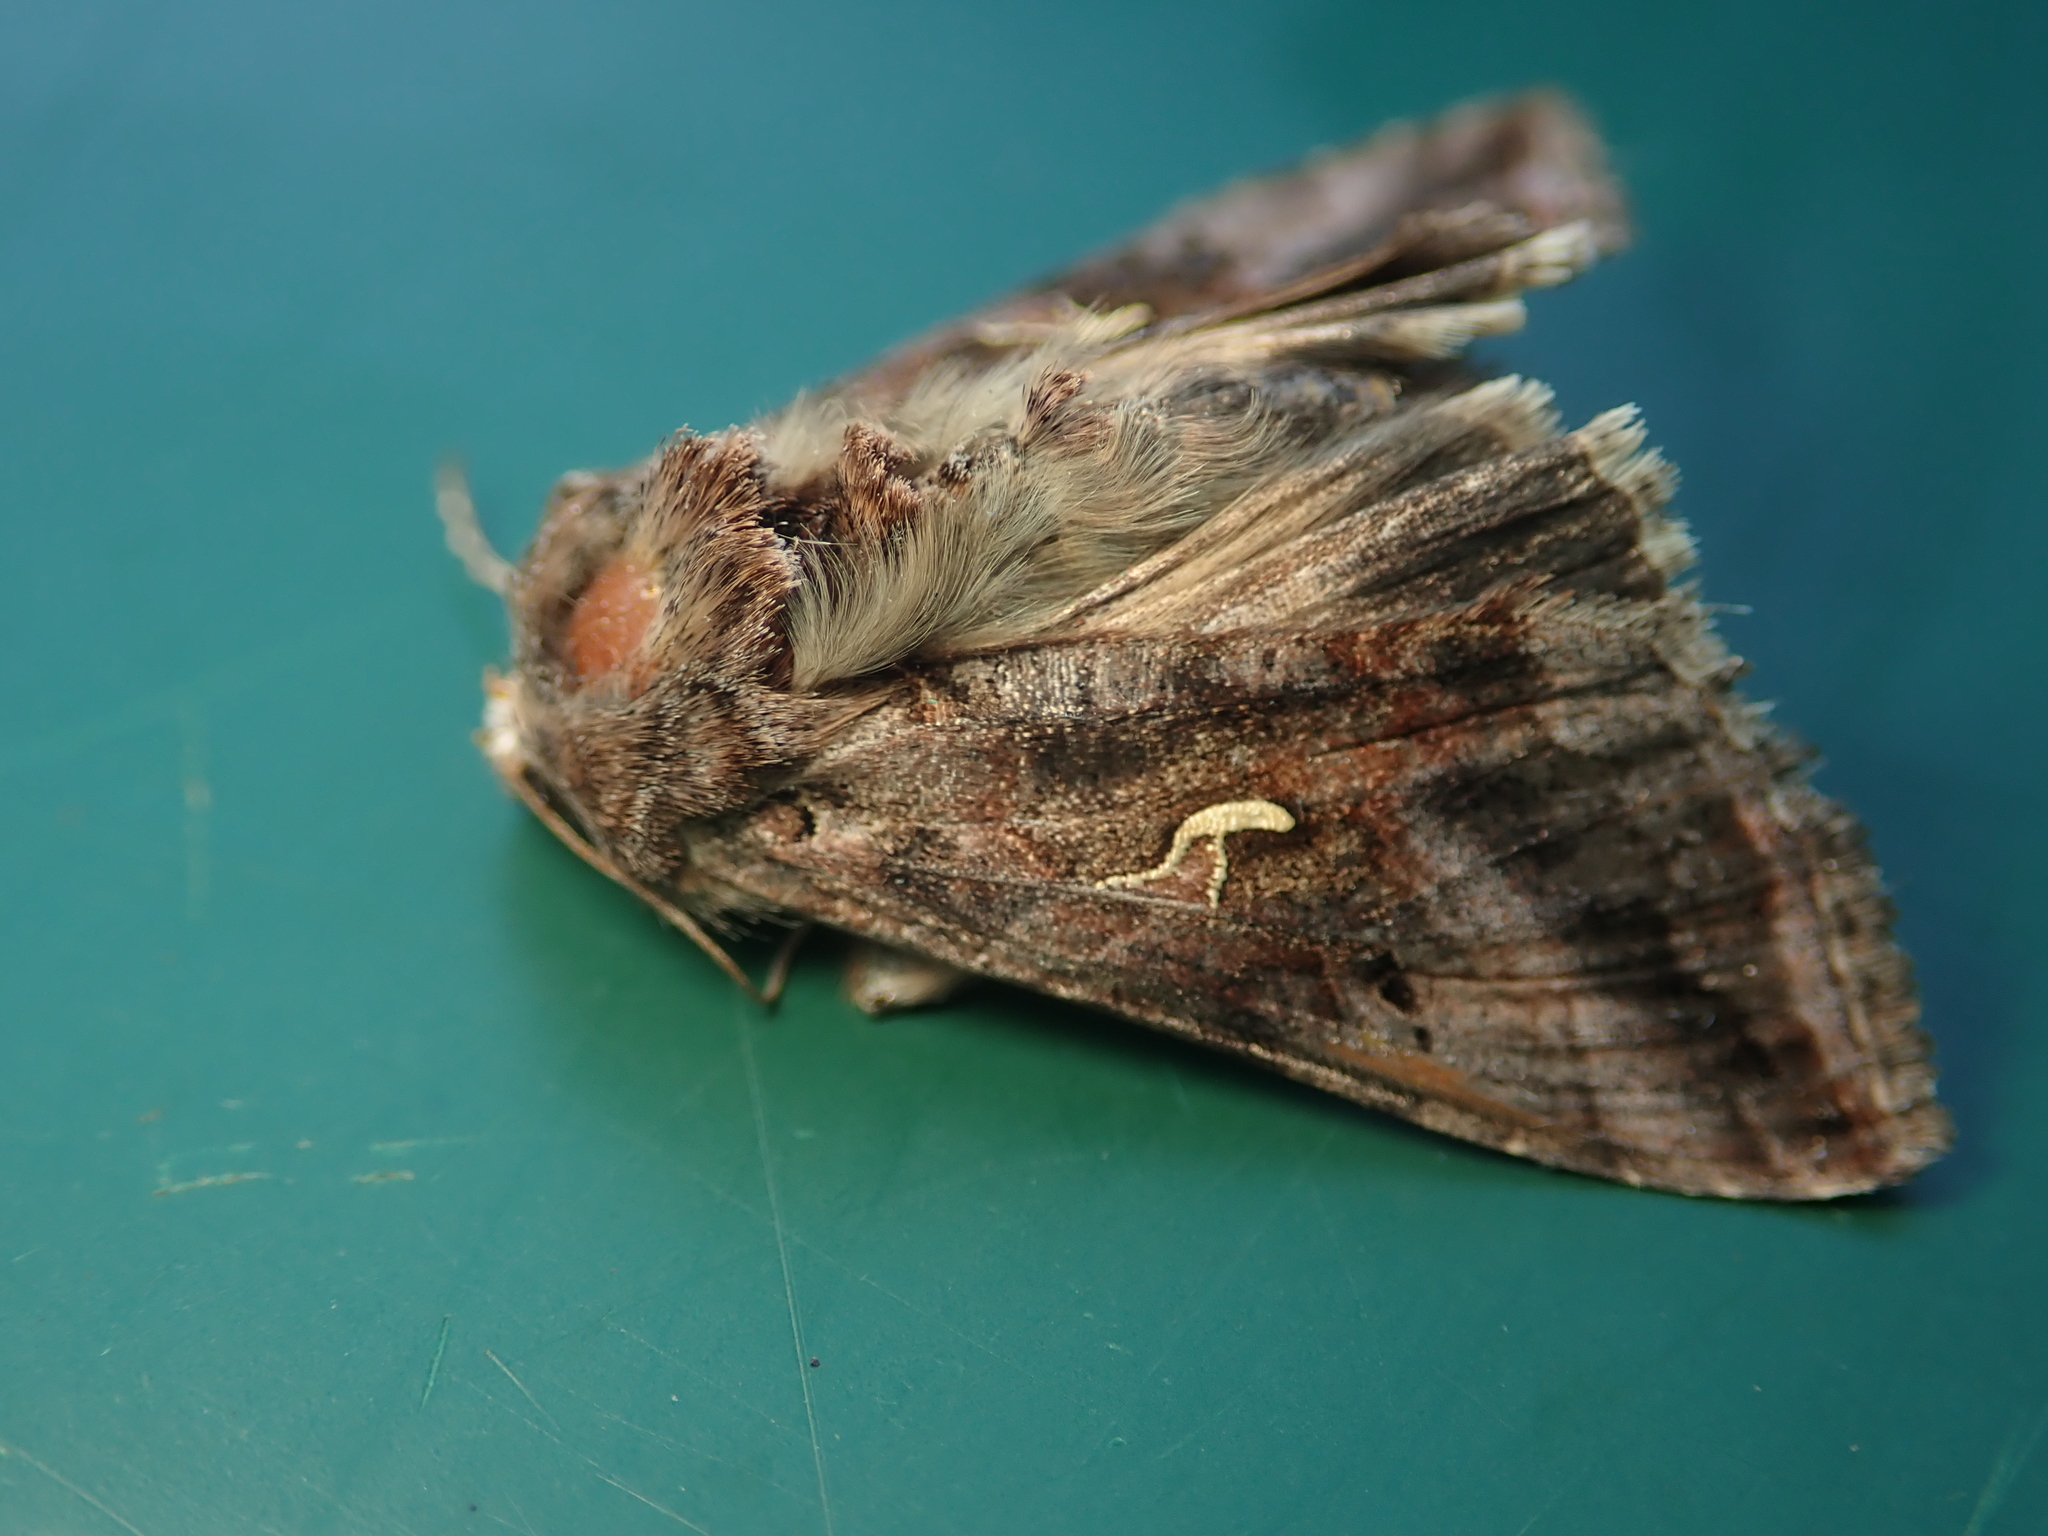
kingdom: Animalia
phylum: Arthropoda
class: Insecta
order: Lepidoptera
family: Noctuidae
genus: Autographa
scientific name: Autographa gamma
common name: Silver y
